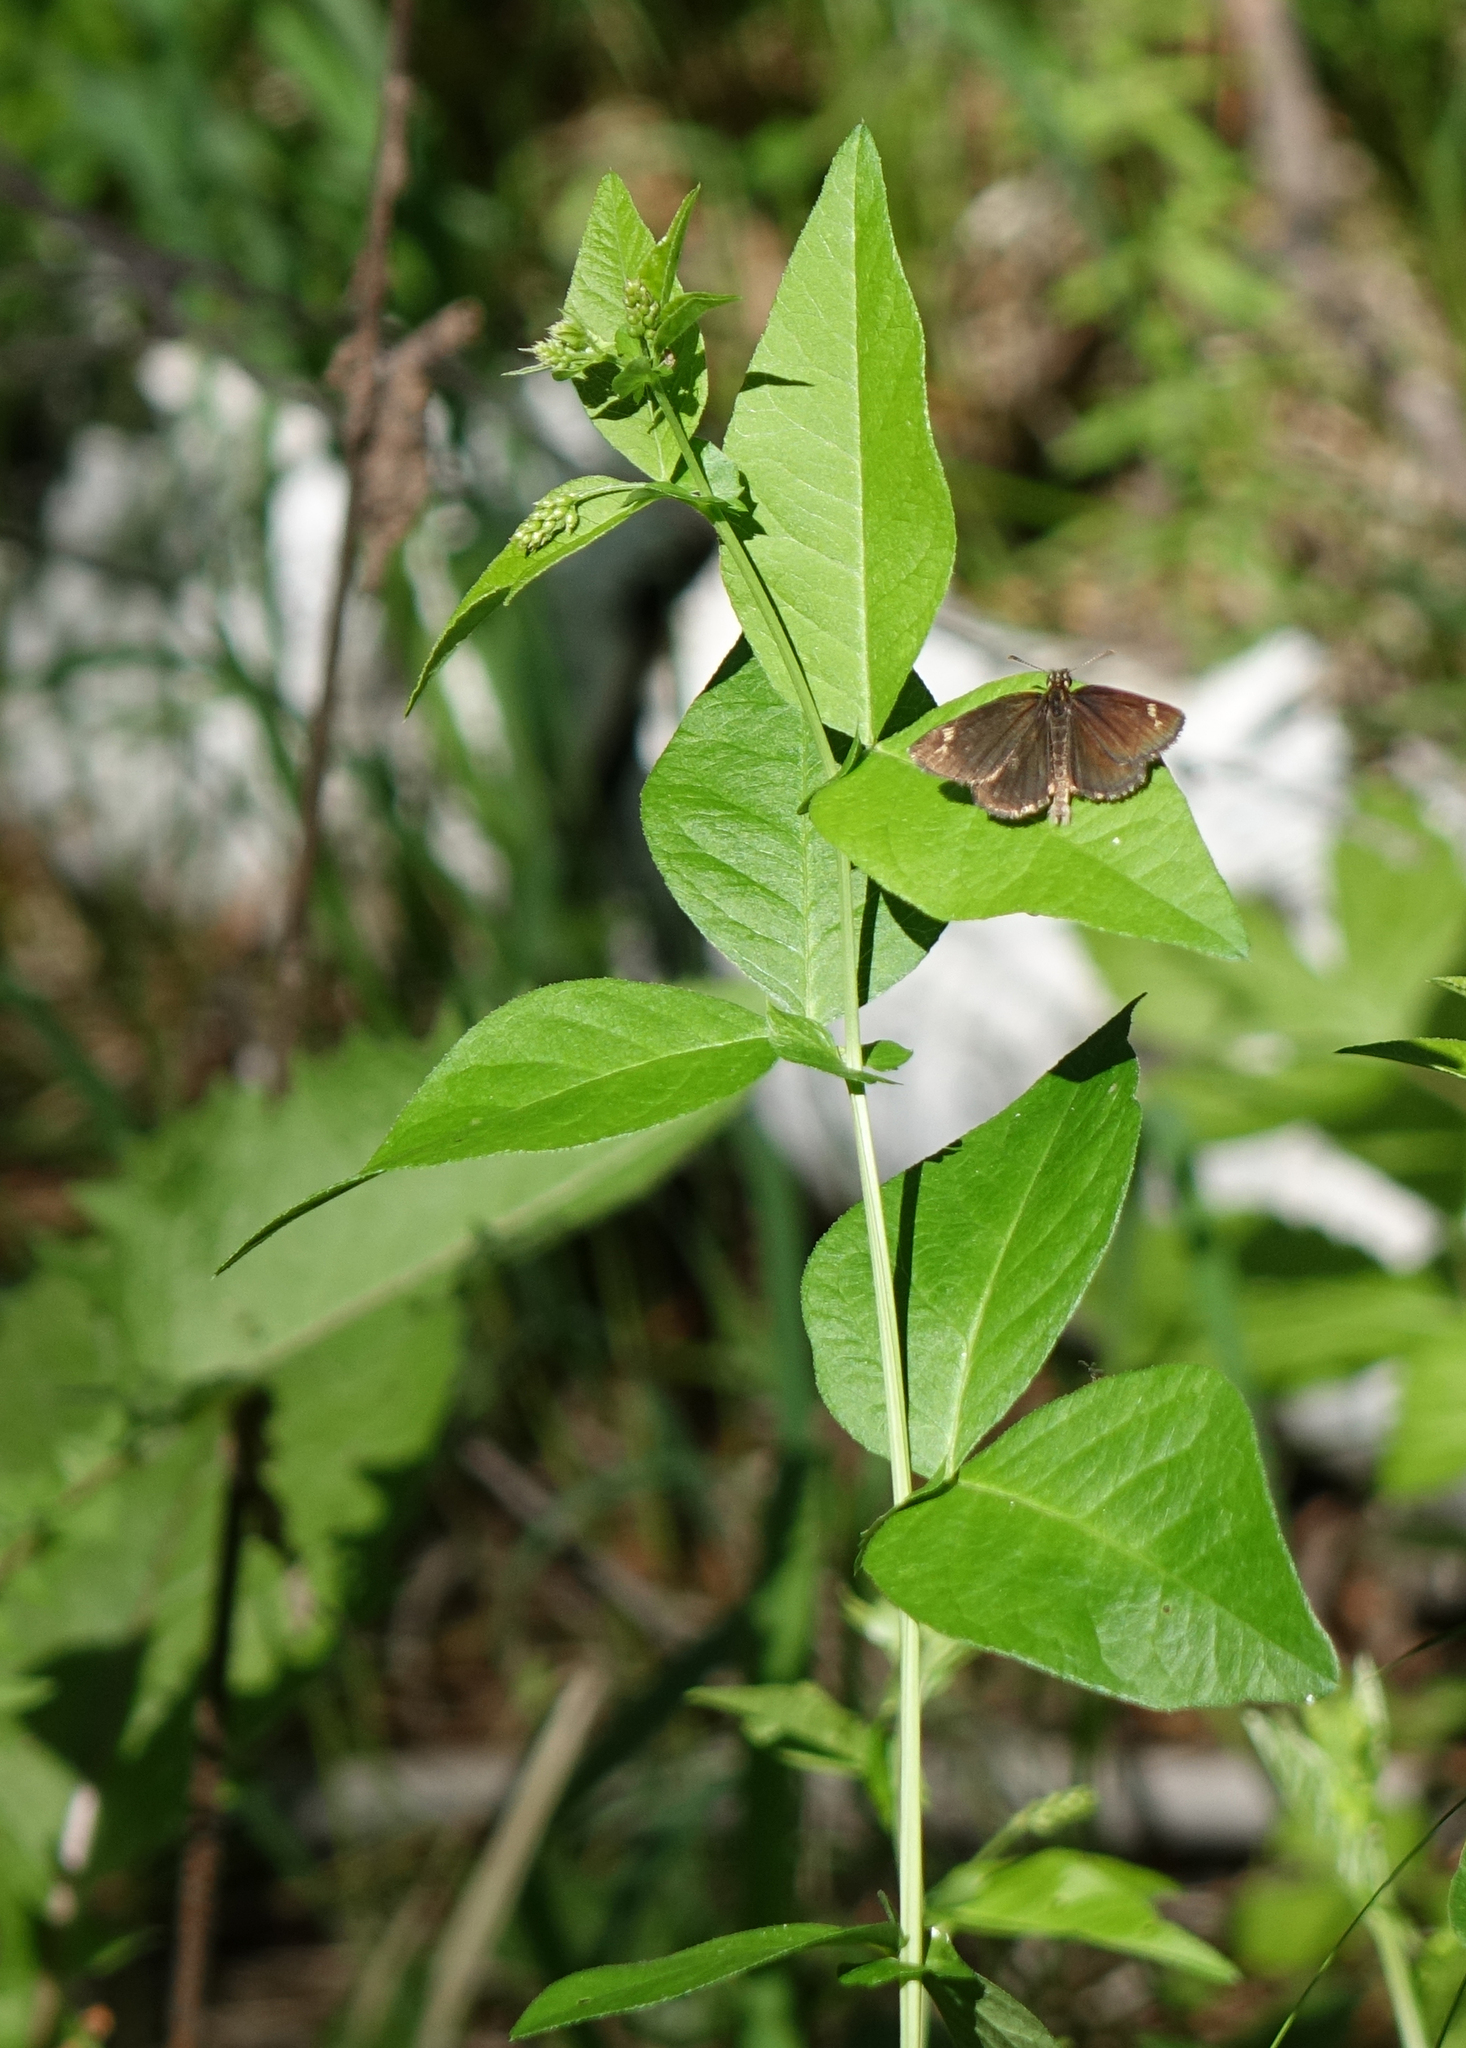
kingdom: Plantae
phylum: Tracheophyta
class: Magnoliopsida
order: Fabales
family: Fabaceae
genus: Vicia
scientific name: Vicia unijuga
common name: Two-leaf vetch
